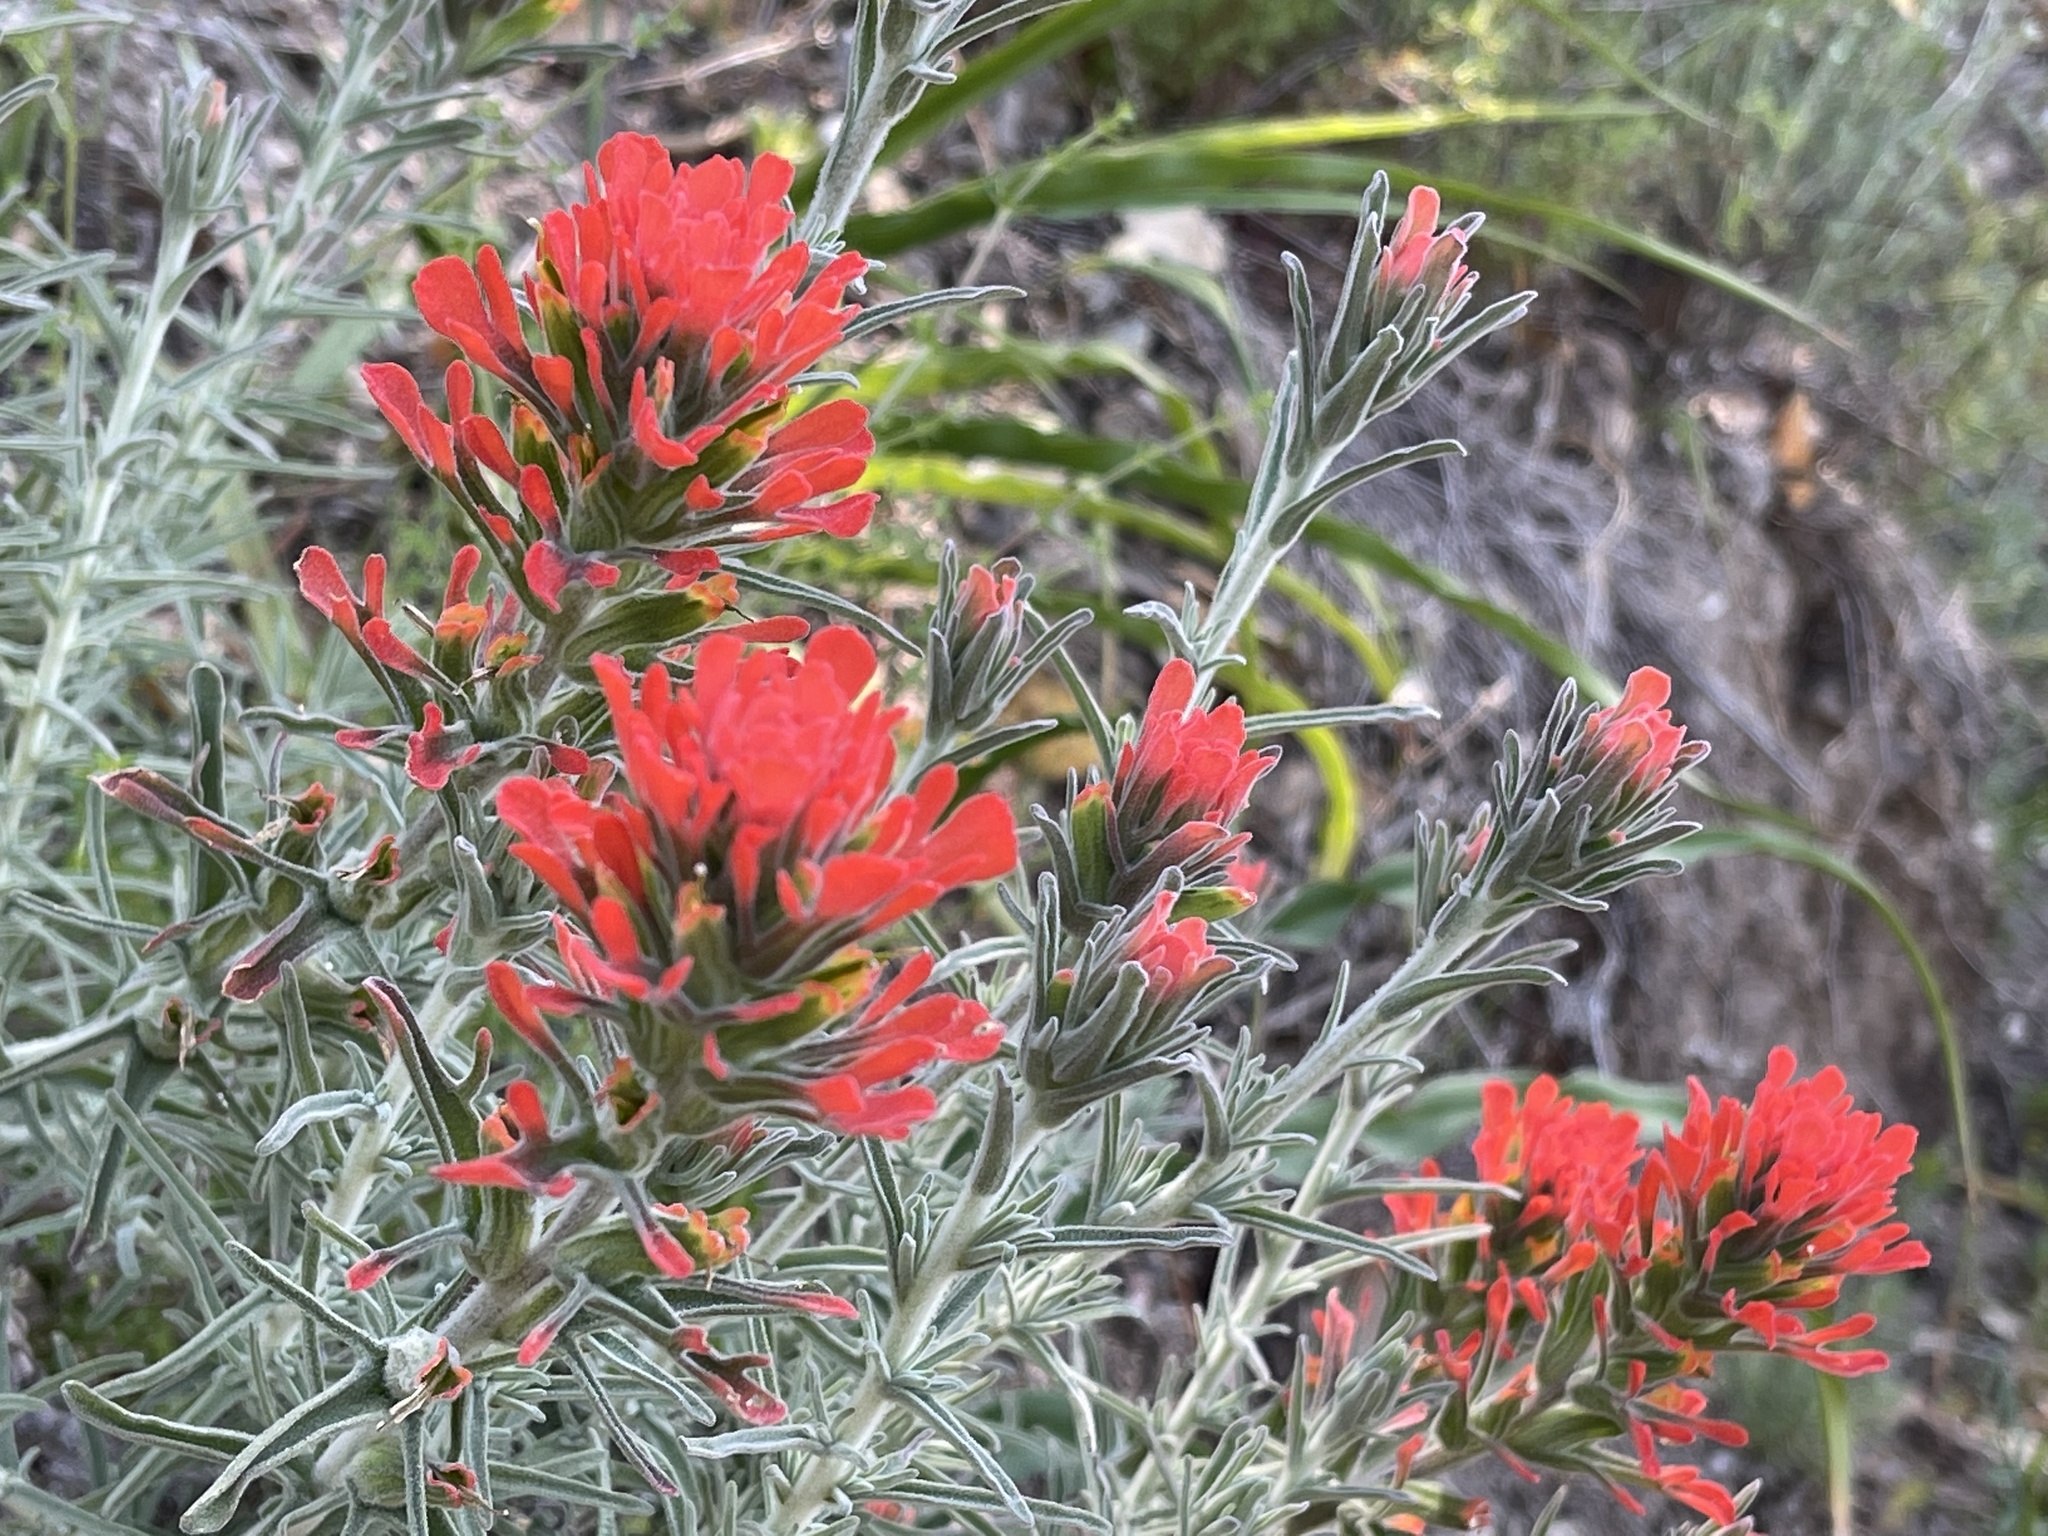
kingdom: Plantae
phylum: Tracheophyta
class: Magnoliopsida
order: Lamiales
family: Orobanchaceae
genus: Castilleja
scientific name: Castilleja foliolosa
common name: Woolly indian paintbrush
